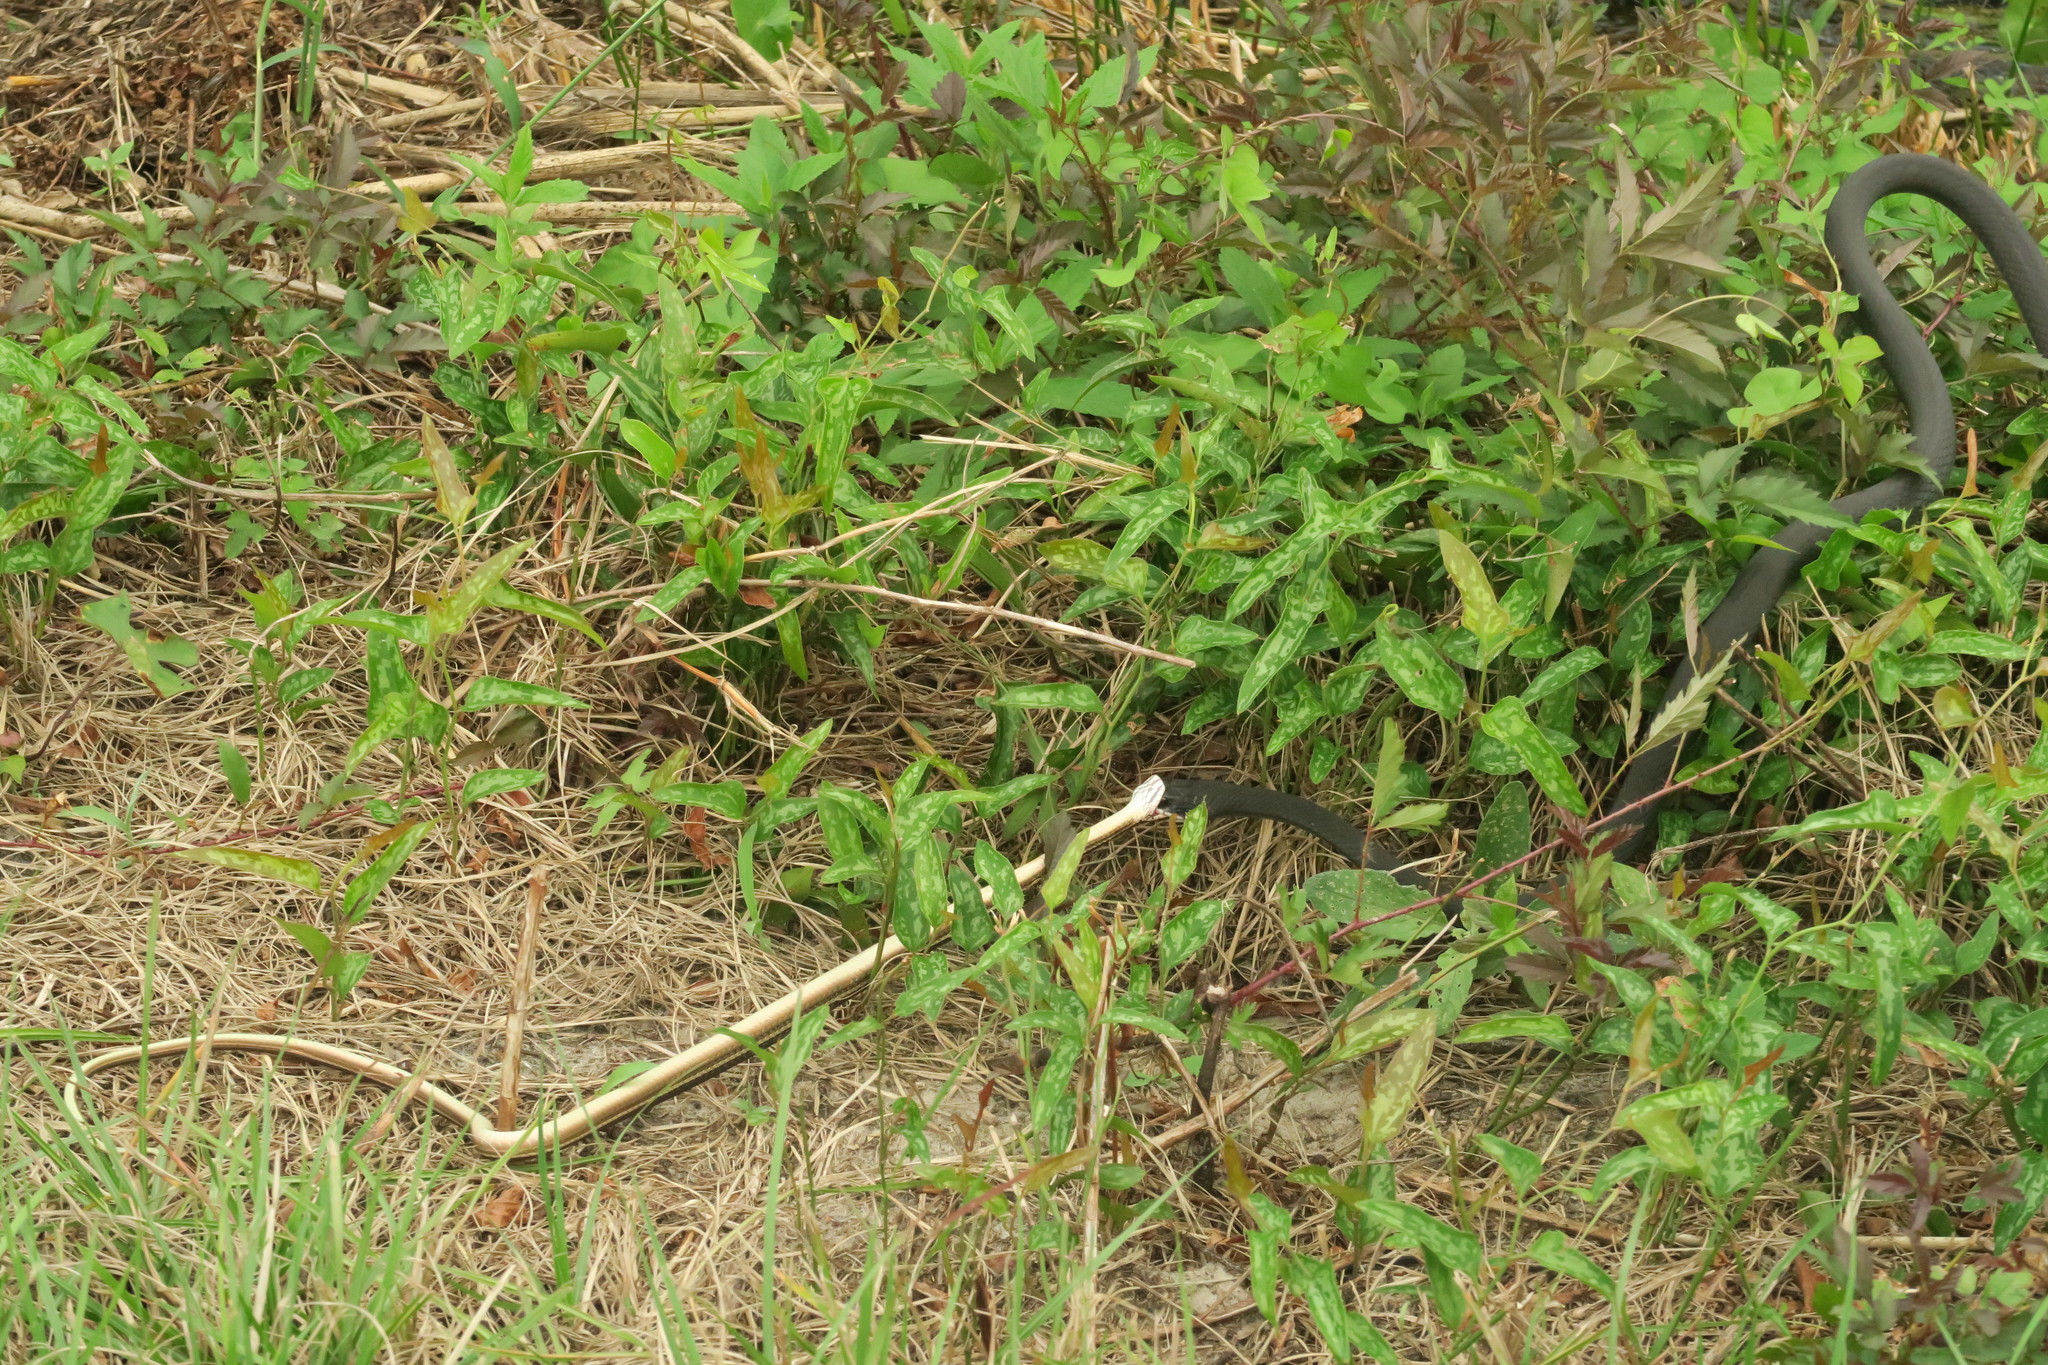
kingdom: Animalia
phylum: Chordata
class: Squamata
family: Colubridae
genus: Thamnophis
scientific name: Thamnophis saurita
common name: Eastern ribbonsnake
